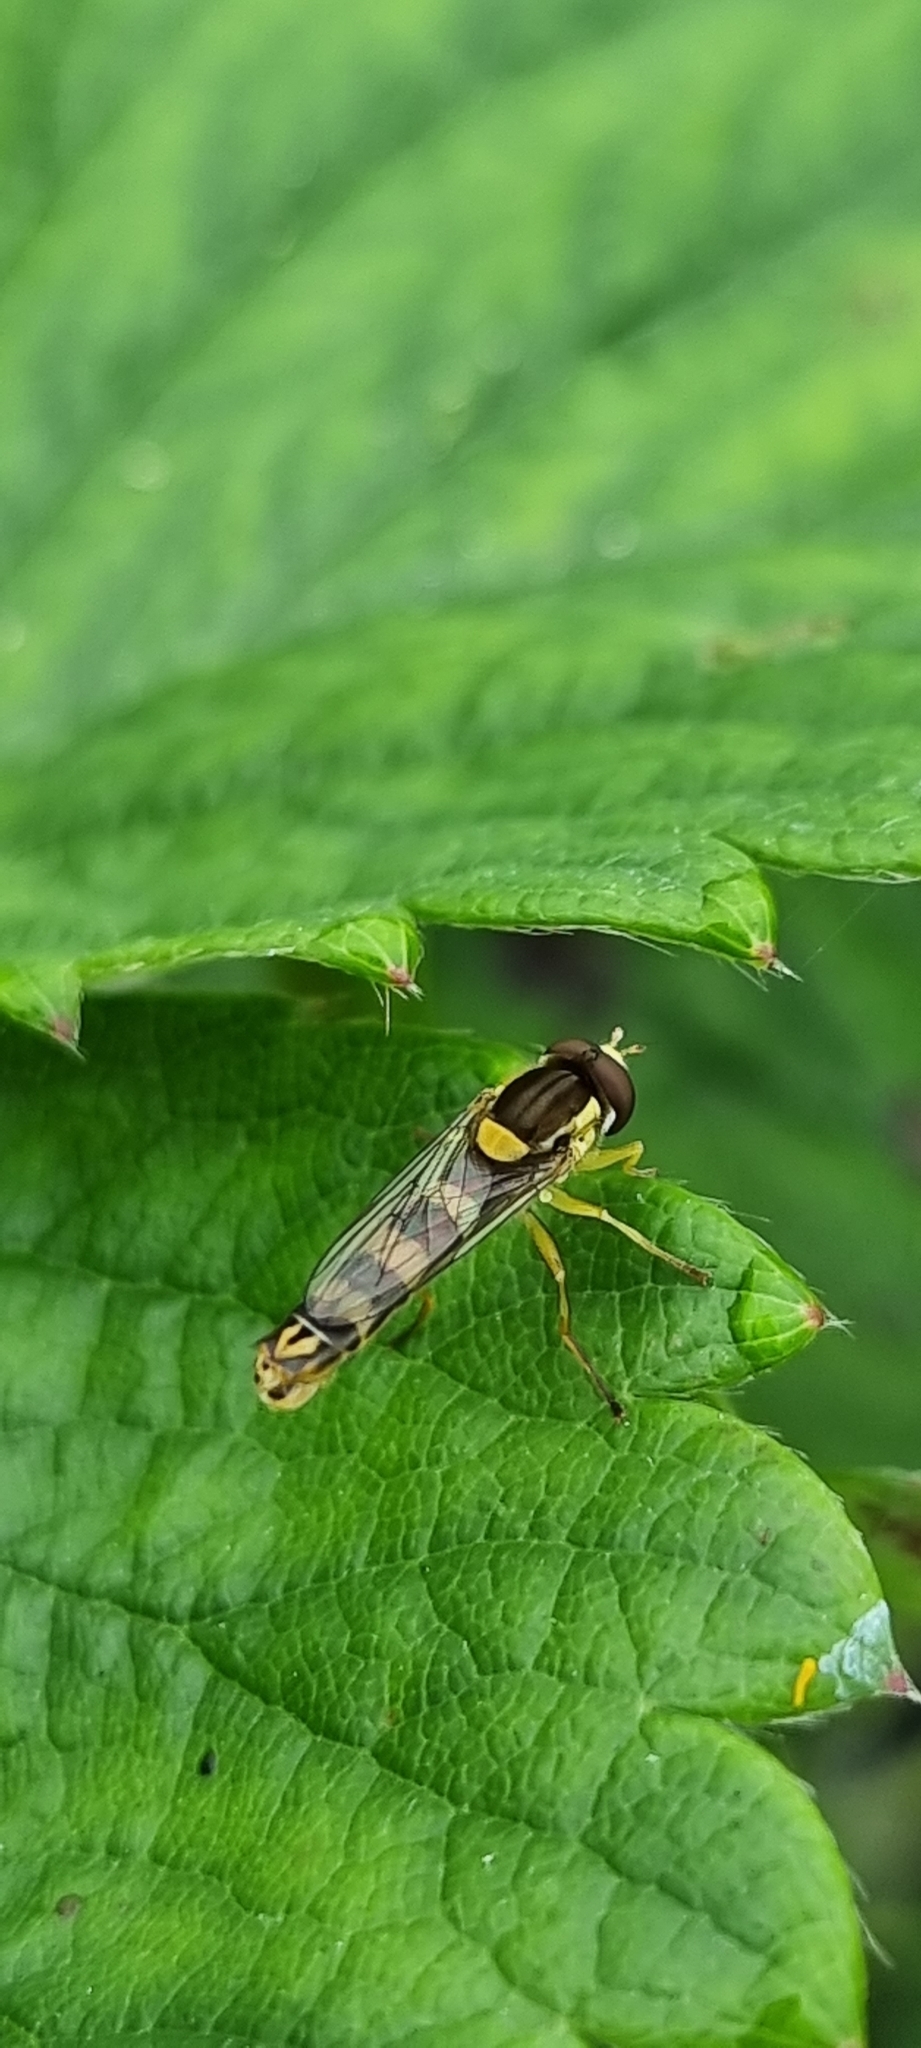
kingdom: Animalia
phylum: Arthropoda
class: Insecta
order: Diptera
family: Syrphidae
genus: Sphaerophoria
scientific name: Sphaerophoria scripta
